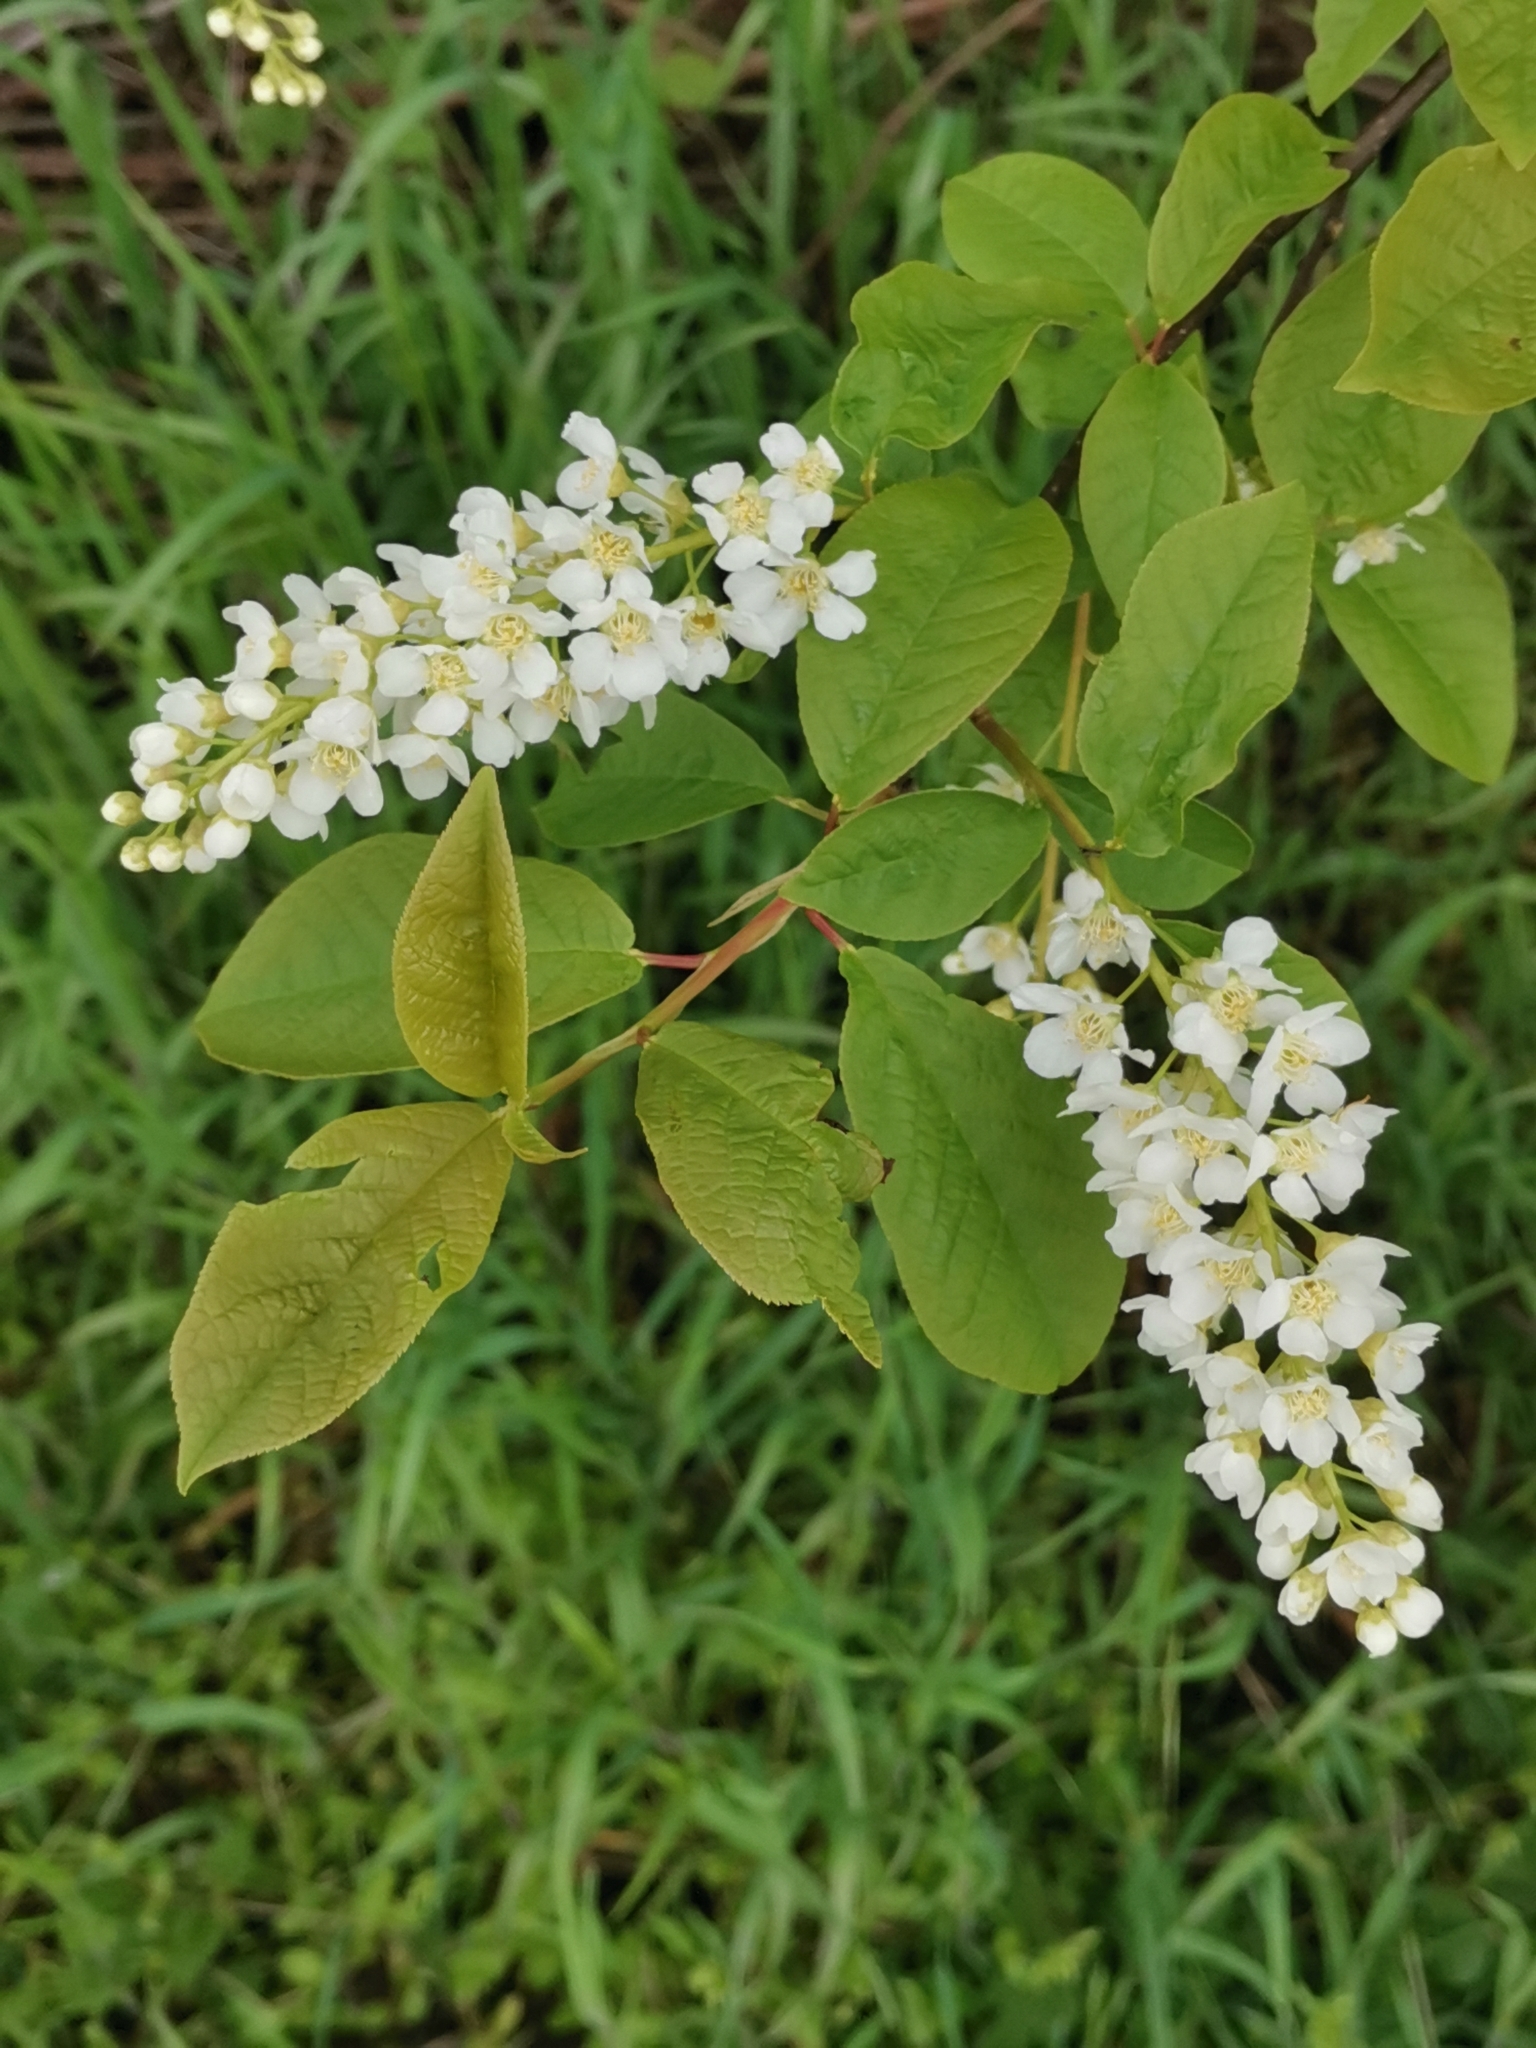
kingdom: Plantae
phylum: Tracheophyta
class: Magnoliopsida
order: Rosales
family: Rosaceae
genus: Prunus
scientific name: Prunus padus
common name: Bird cherry
